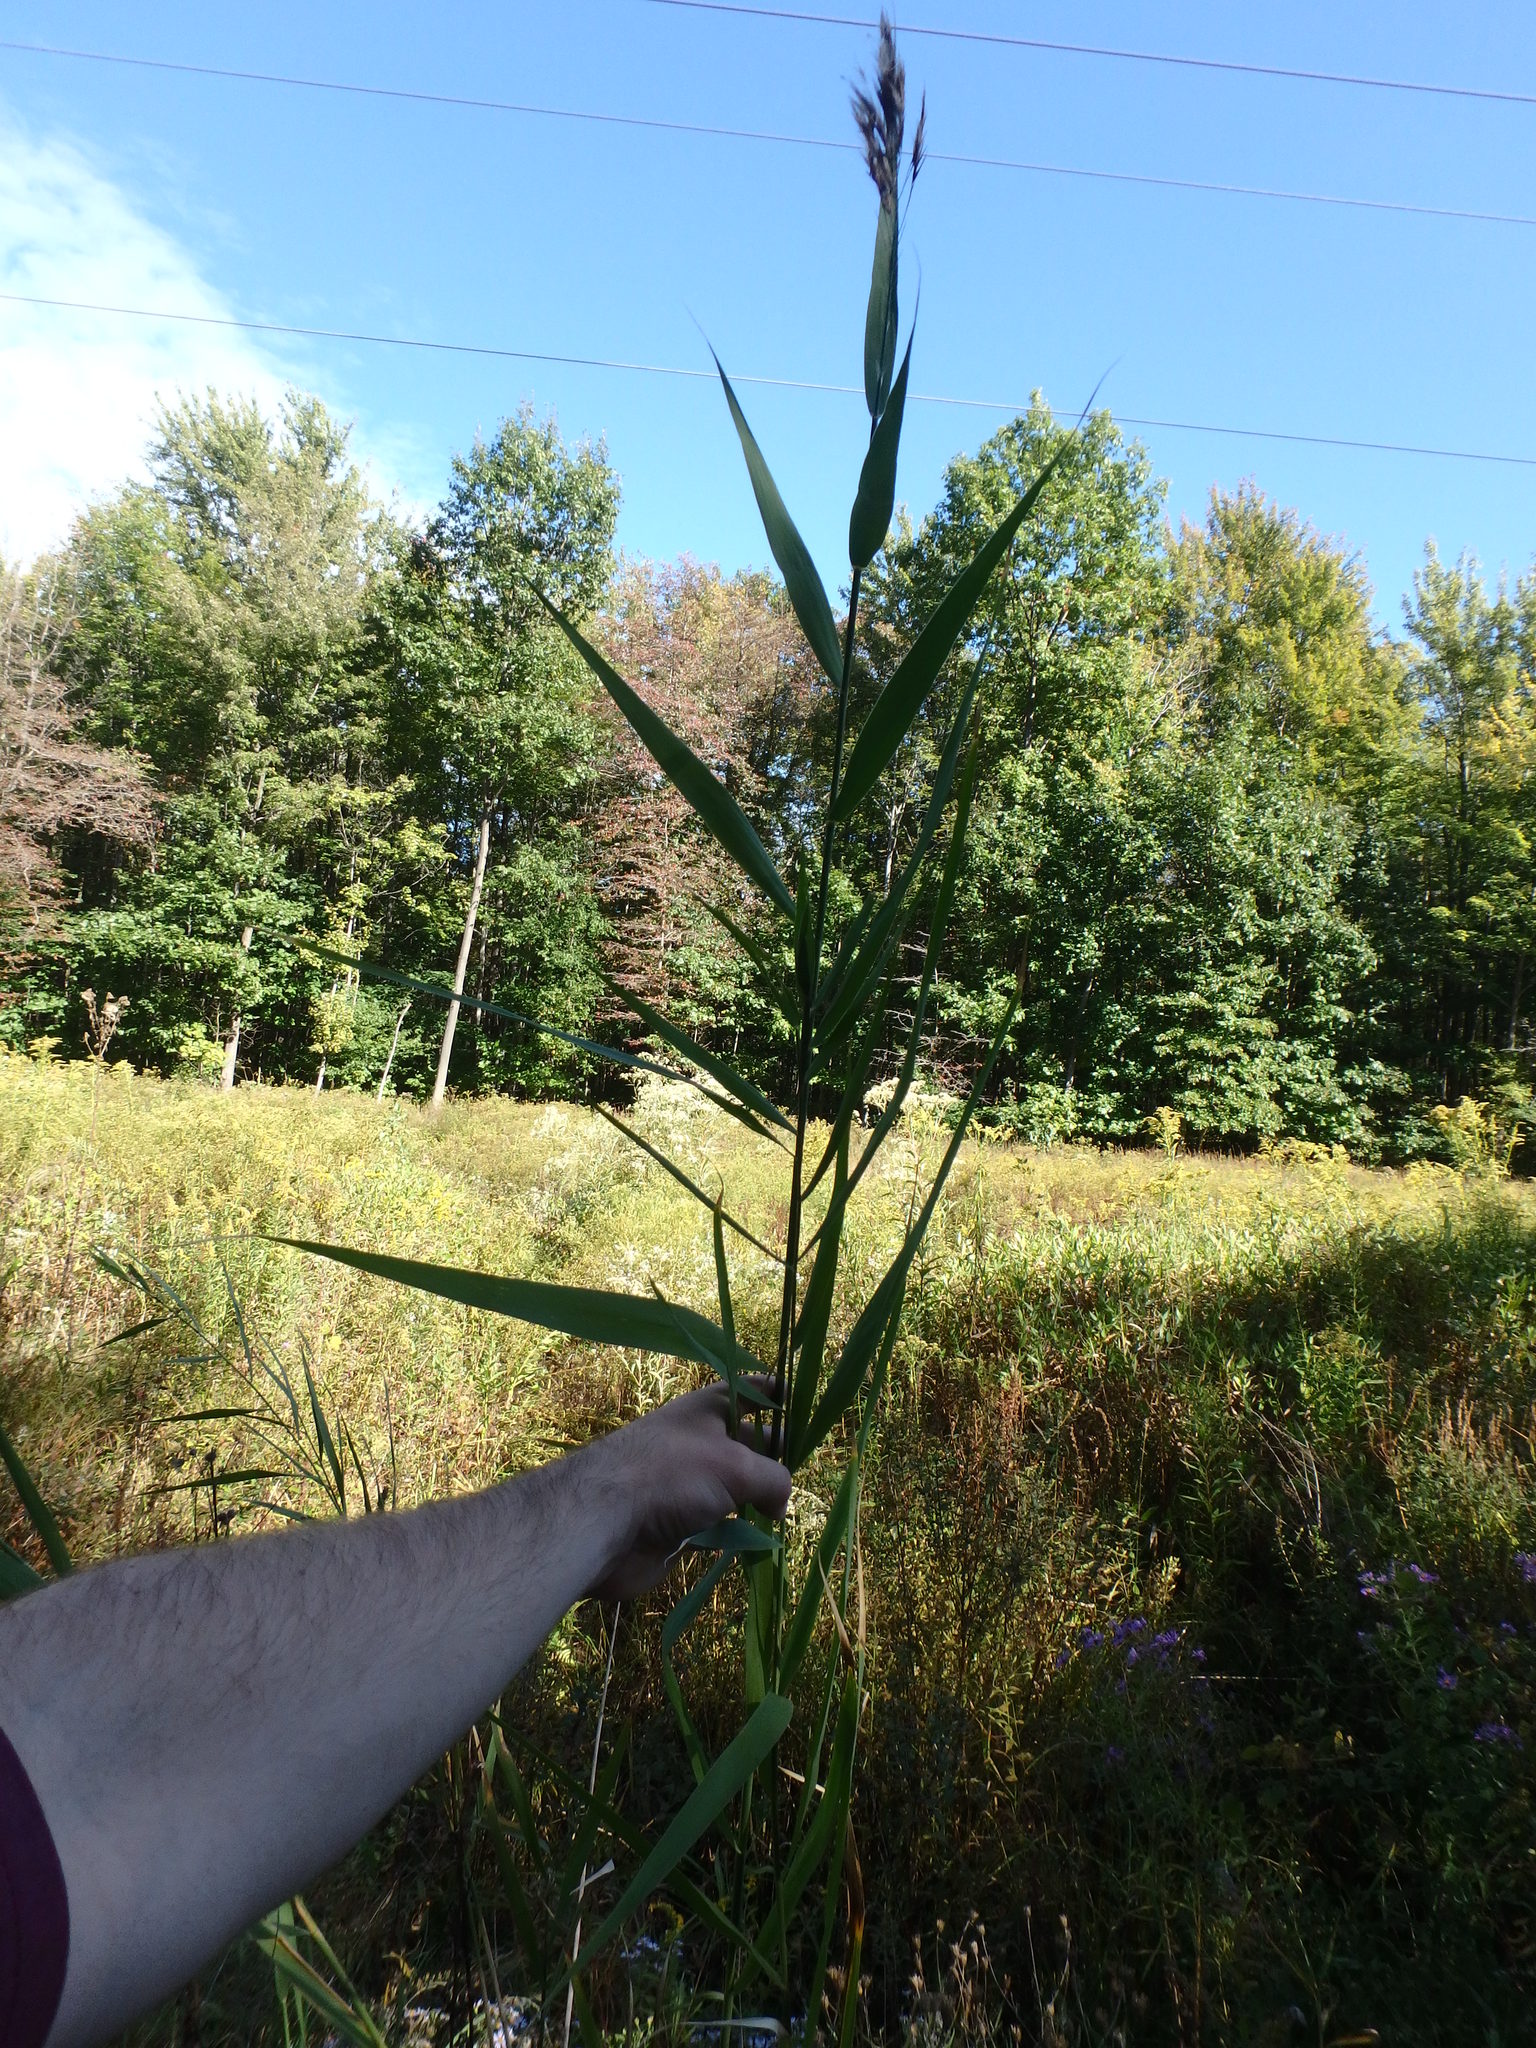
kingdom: Plantae
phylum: Tracheophyta
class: Liliopsida
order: Poales
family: Poaceae
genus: Phragmites
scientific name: Phragmites australis
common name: Common reed
